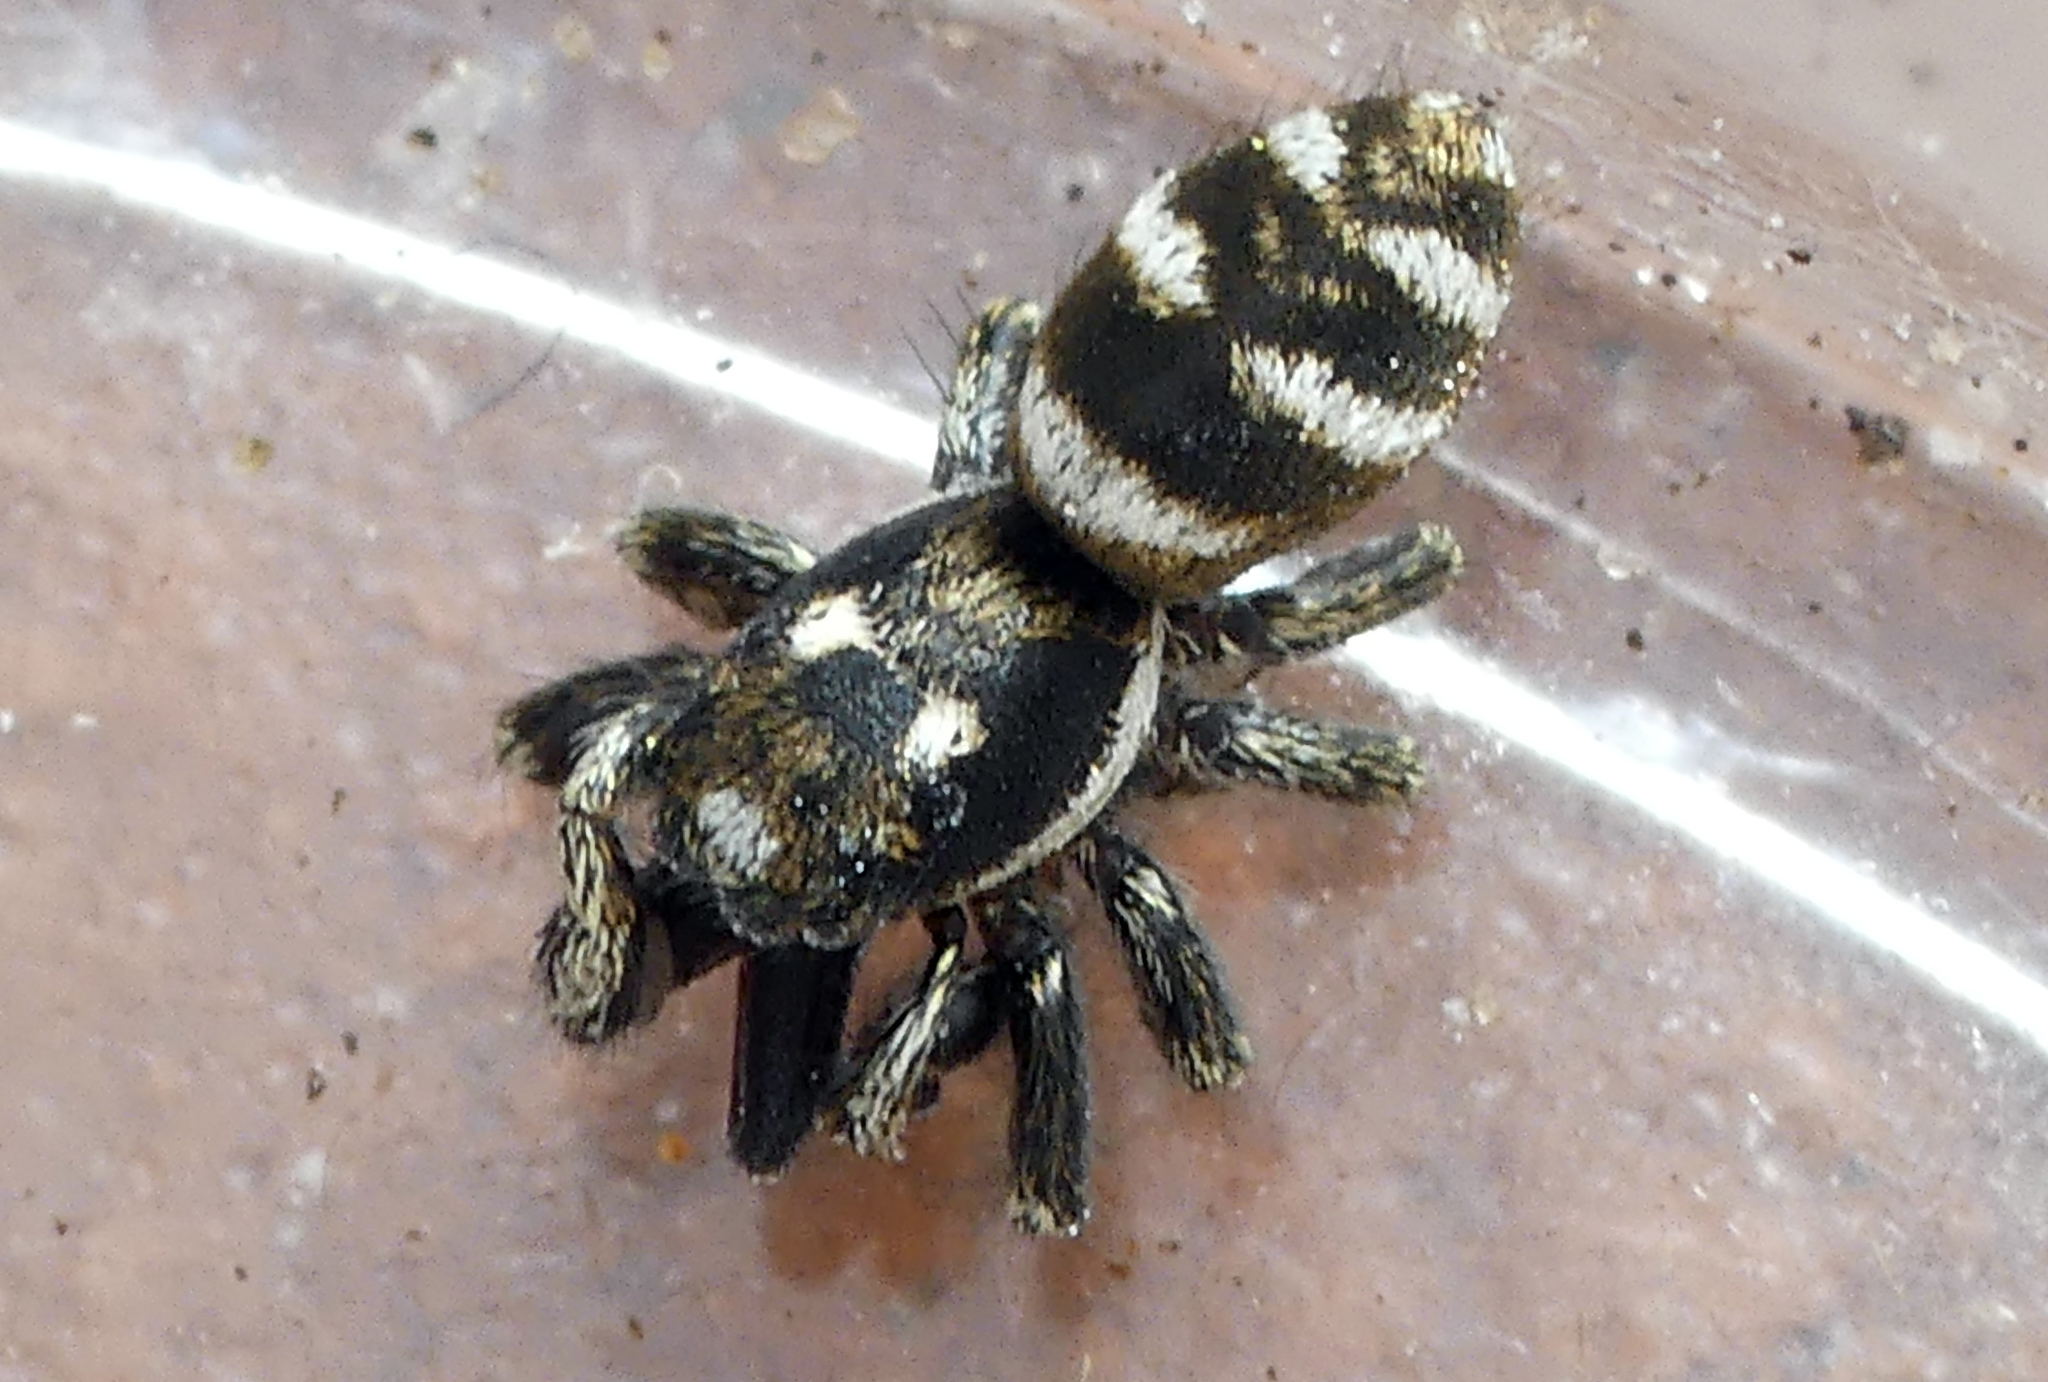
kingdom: Animalia
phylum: Arthropoda
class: Arachnida
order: Araneae
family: Salticidae
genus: Salticus
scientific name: Salticus scenicus
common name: Zebra jumper
